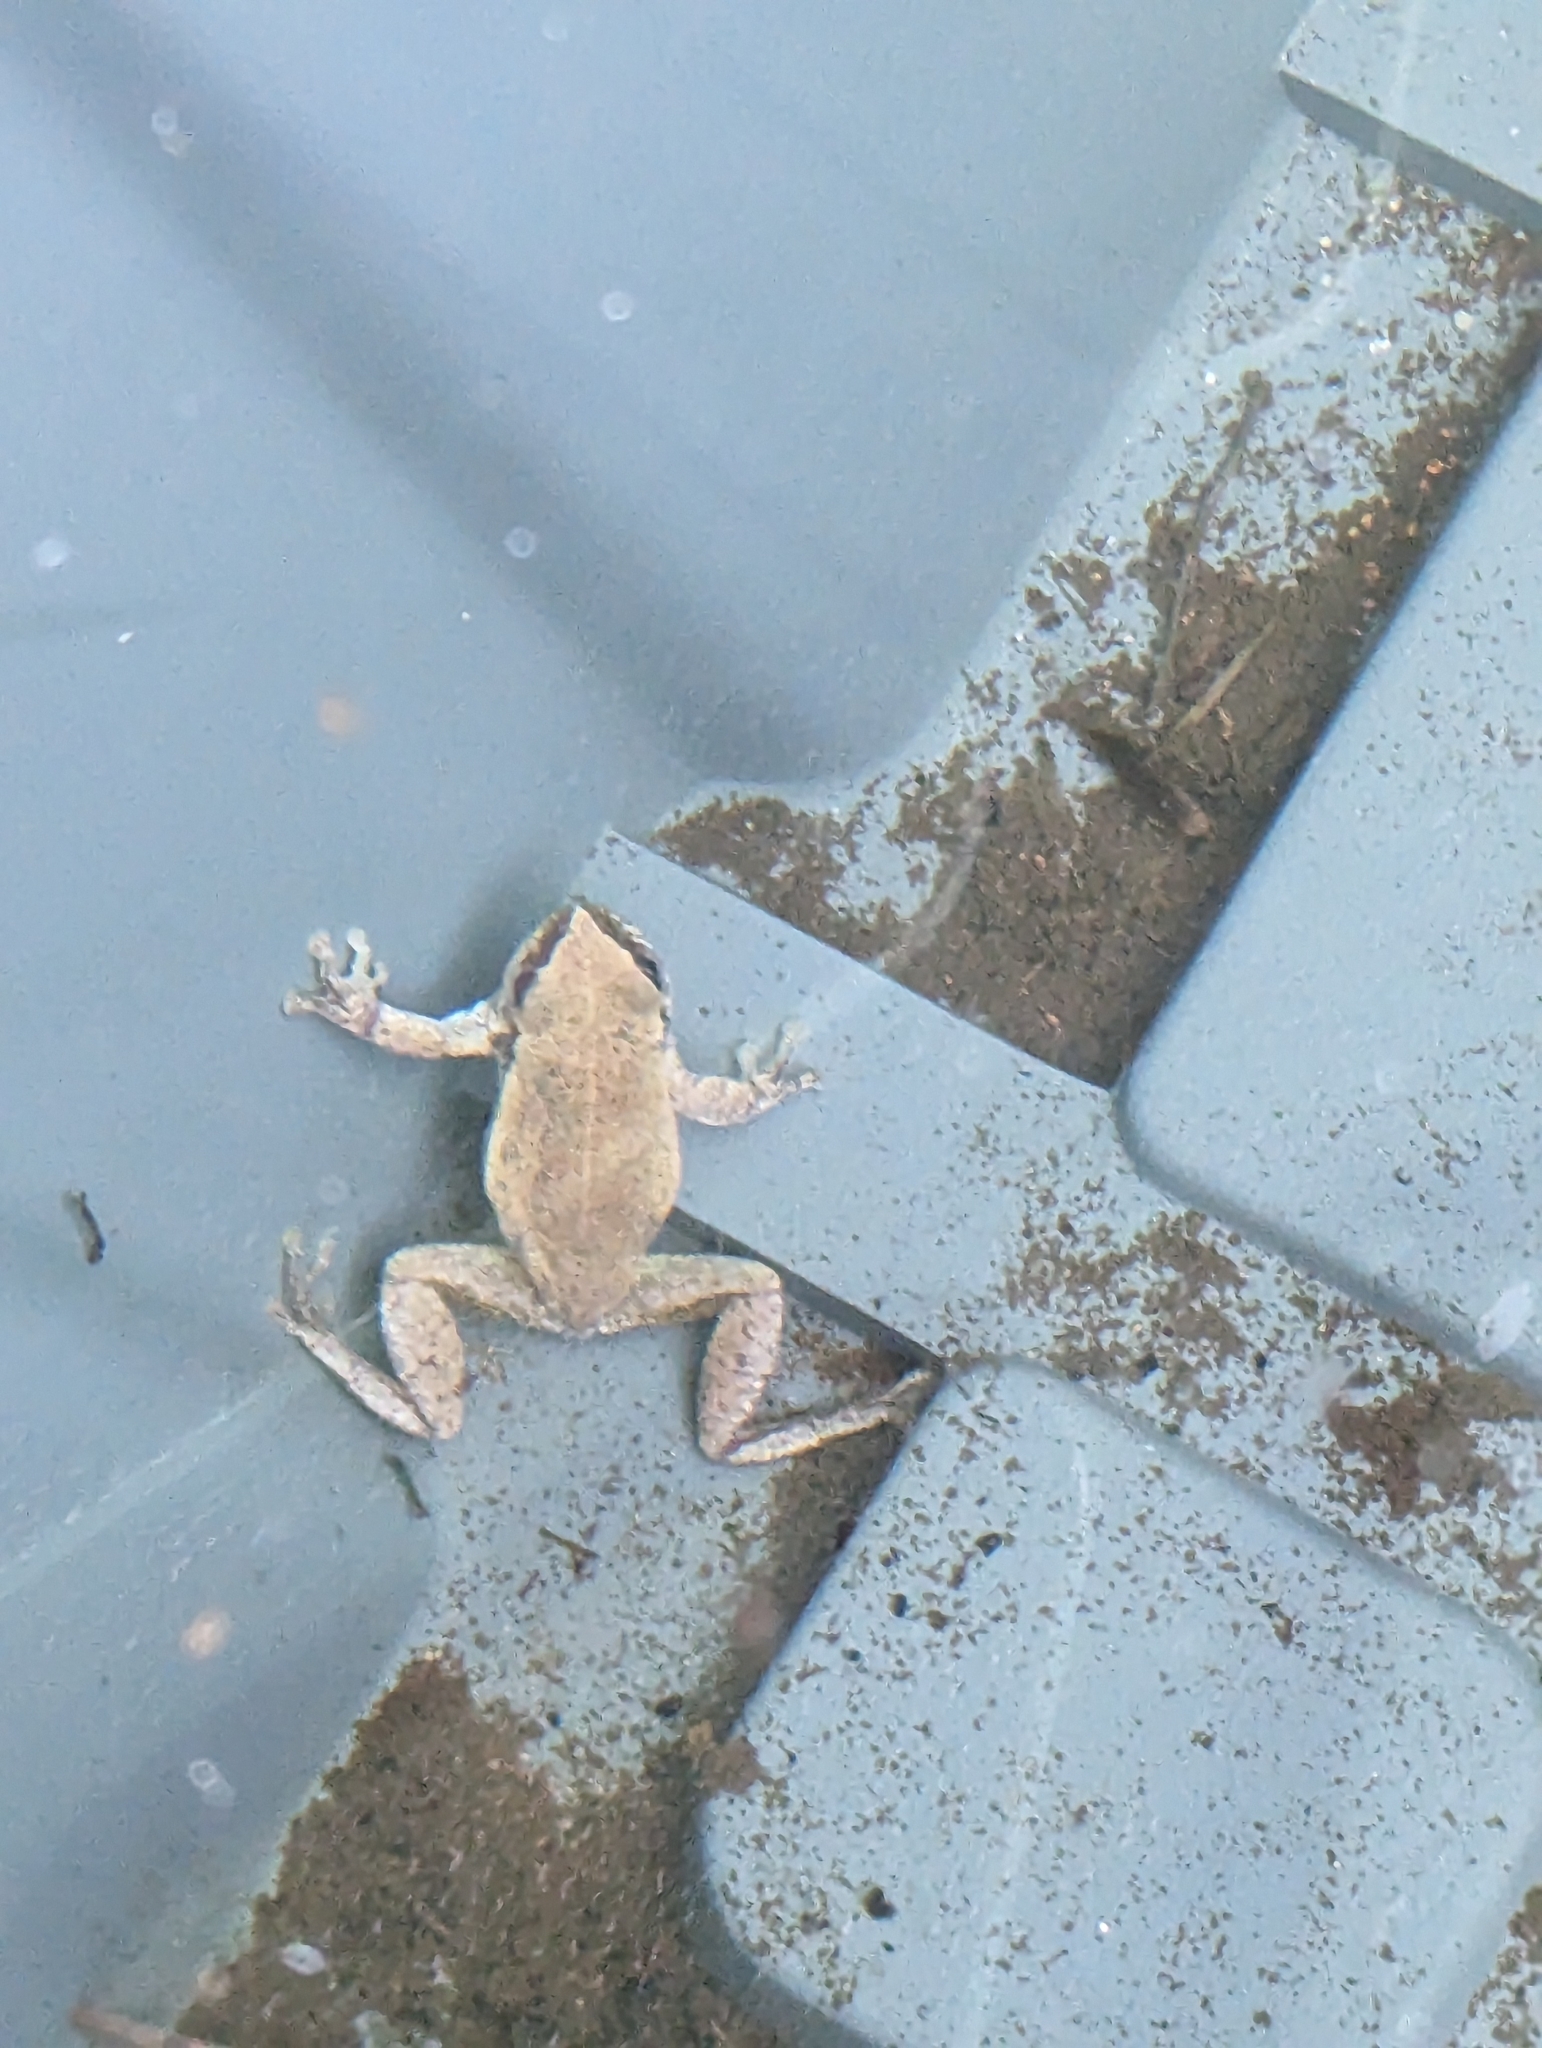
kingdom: Animalia
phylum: Chordata
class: Amphibia
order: Anura
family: Pelodryadidae
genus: Litoria
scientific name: Litoria rubella
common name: Desert tree frog
